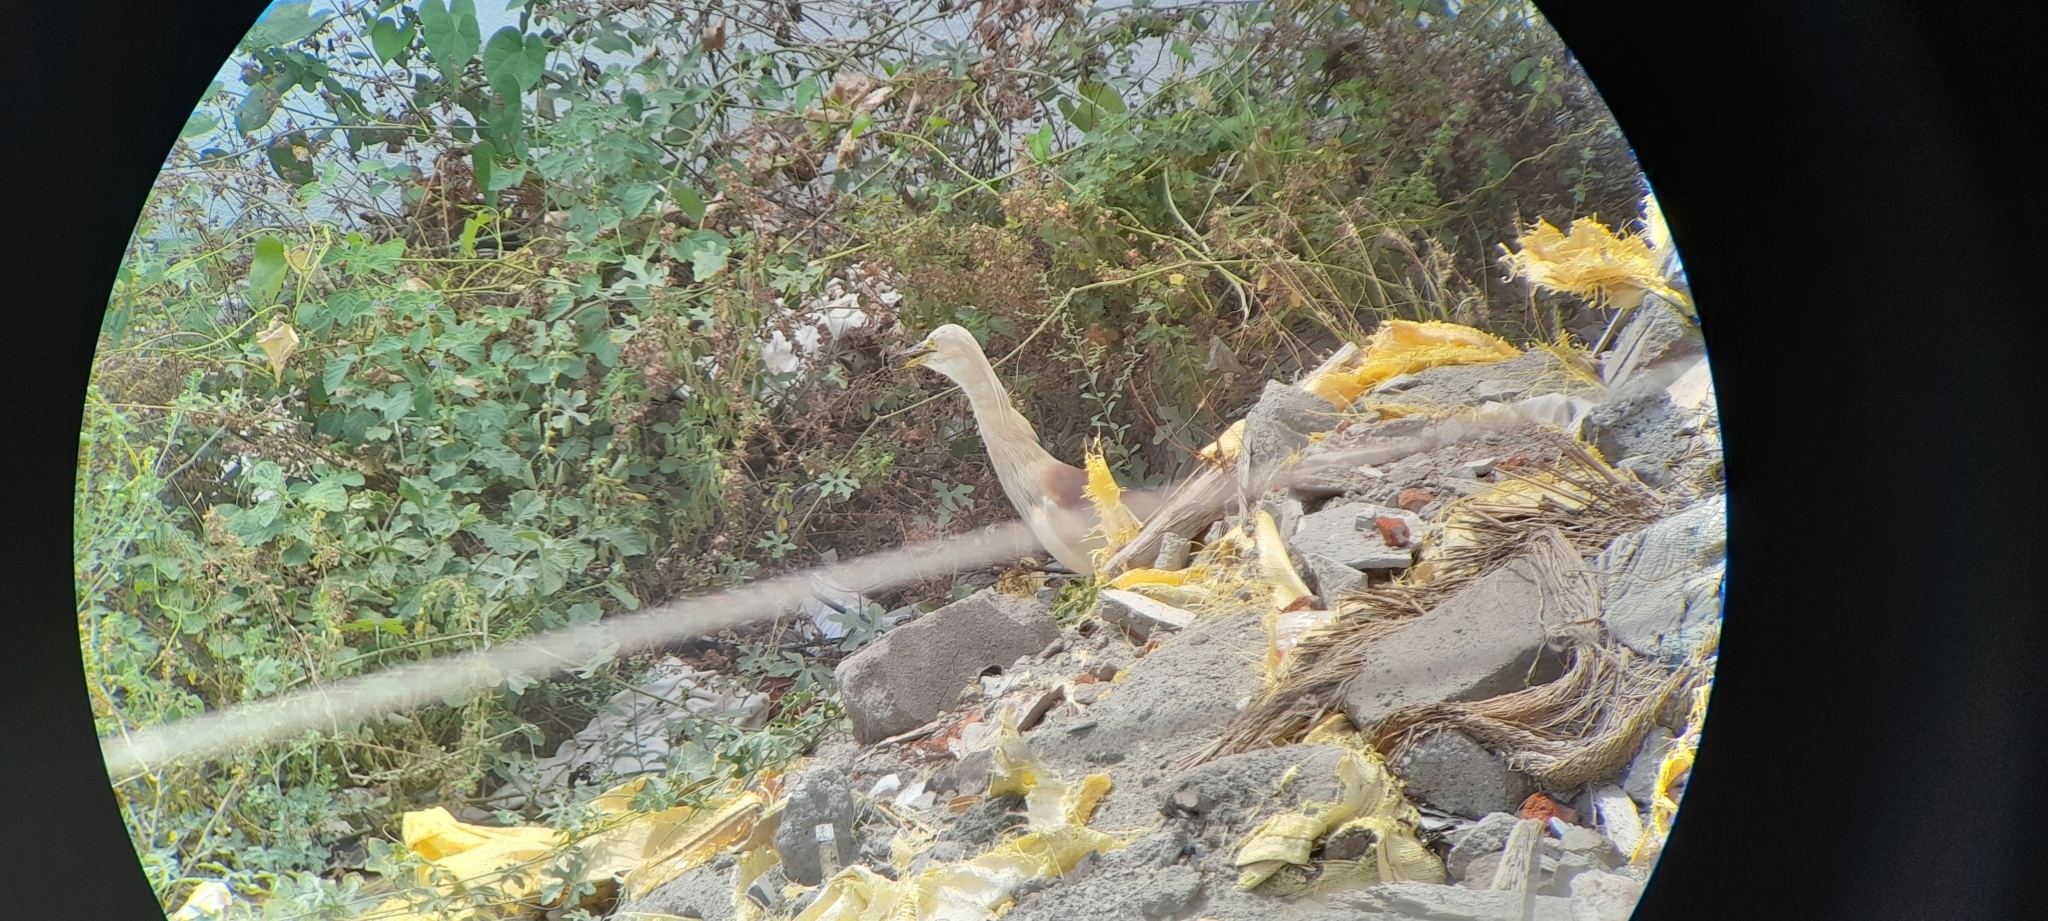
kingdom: Animalia
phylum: Chordata
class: Aves
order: Pelecaniformes
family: Ardeidae
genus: Ardeola
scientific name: Ardeola grayii
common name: Indian pond heron
